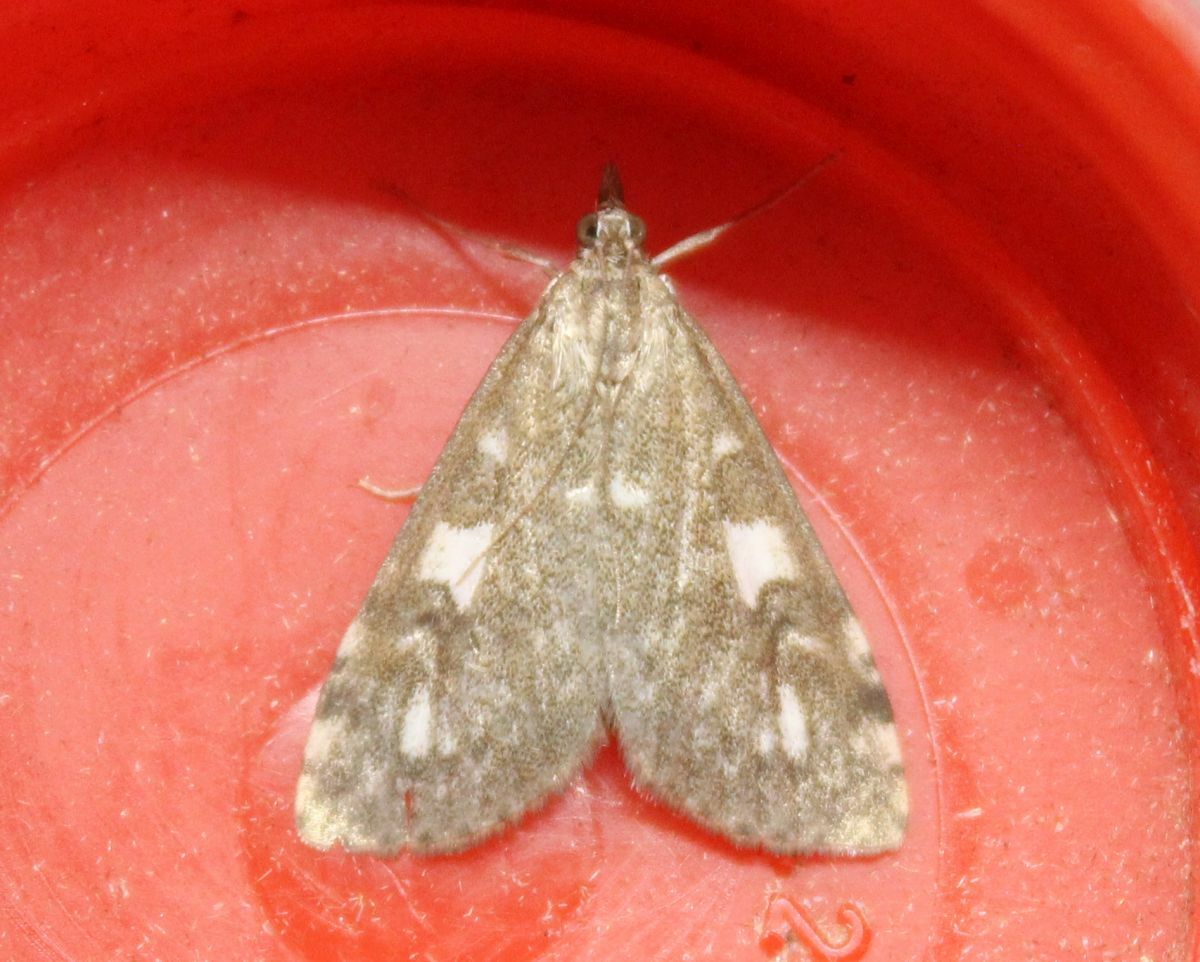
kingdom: Animalia
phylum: Arthropoda
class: Insecta
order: Lepidoptera
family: Crambidae
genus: Udea
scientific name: Udea olivalis
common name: Olive pearl
